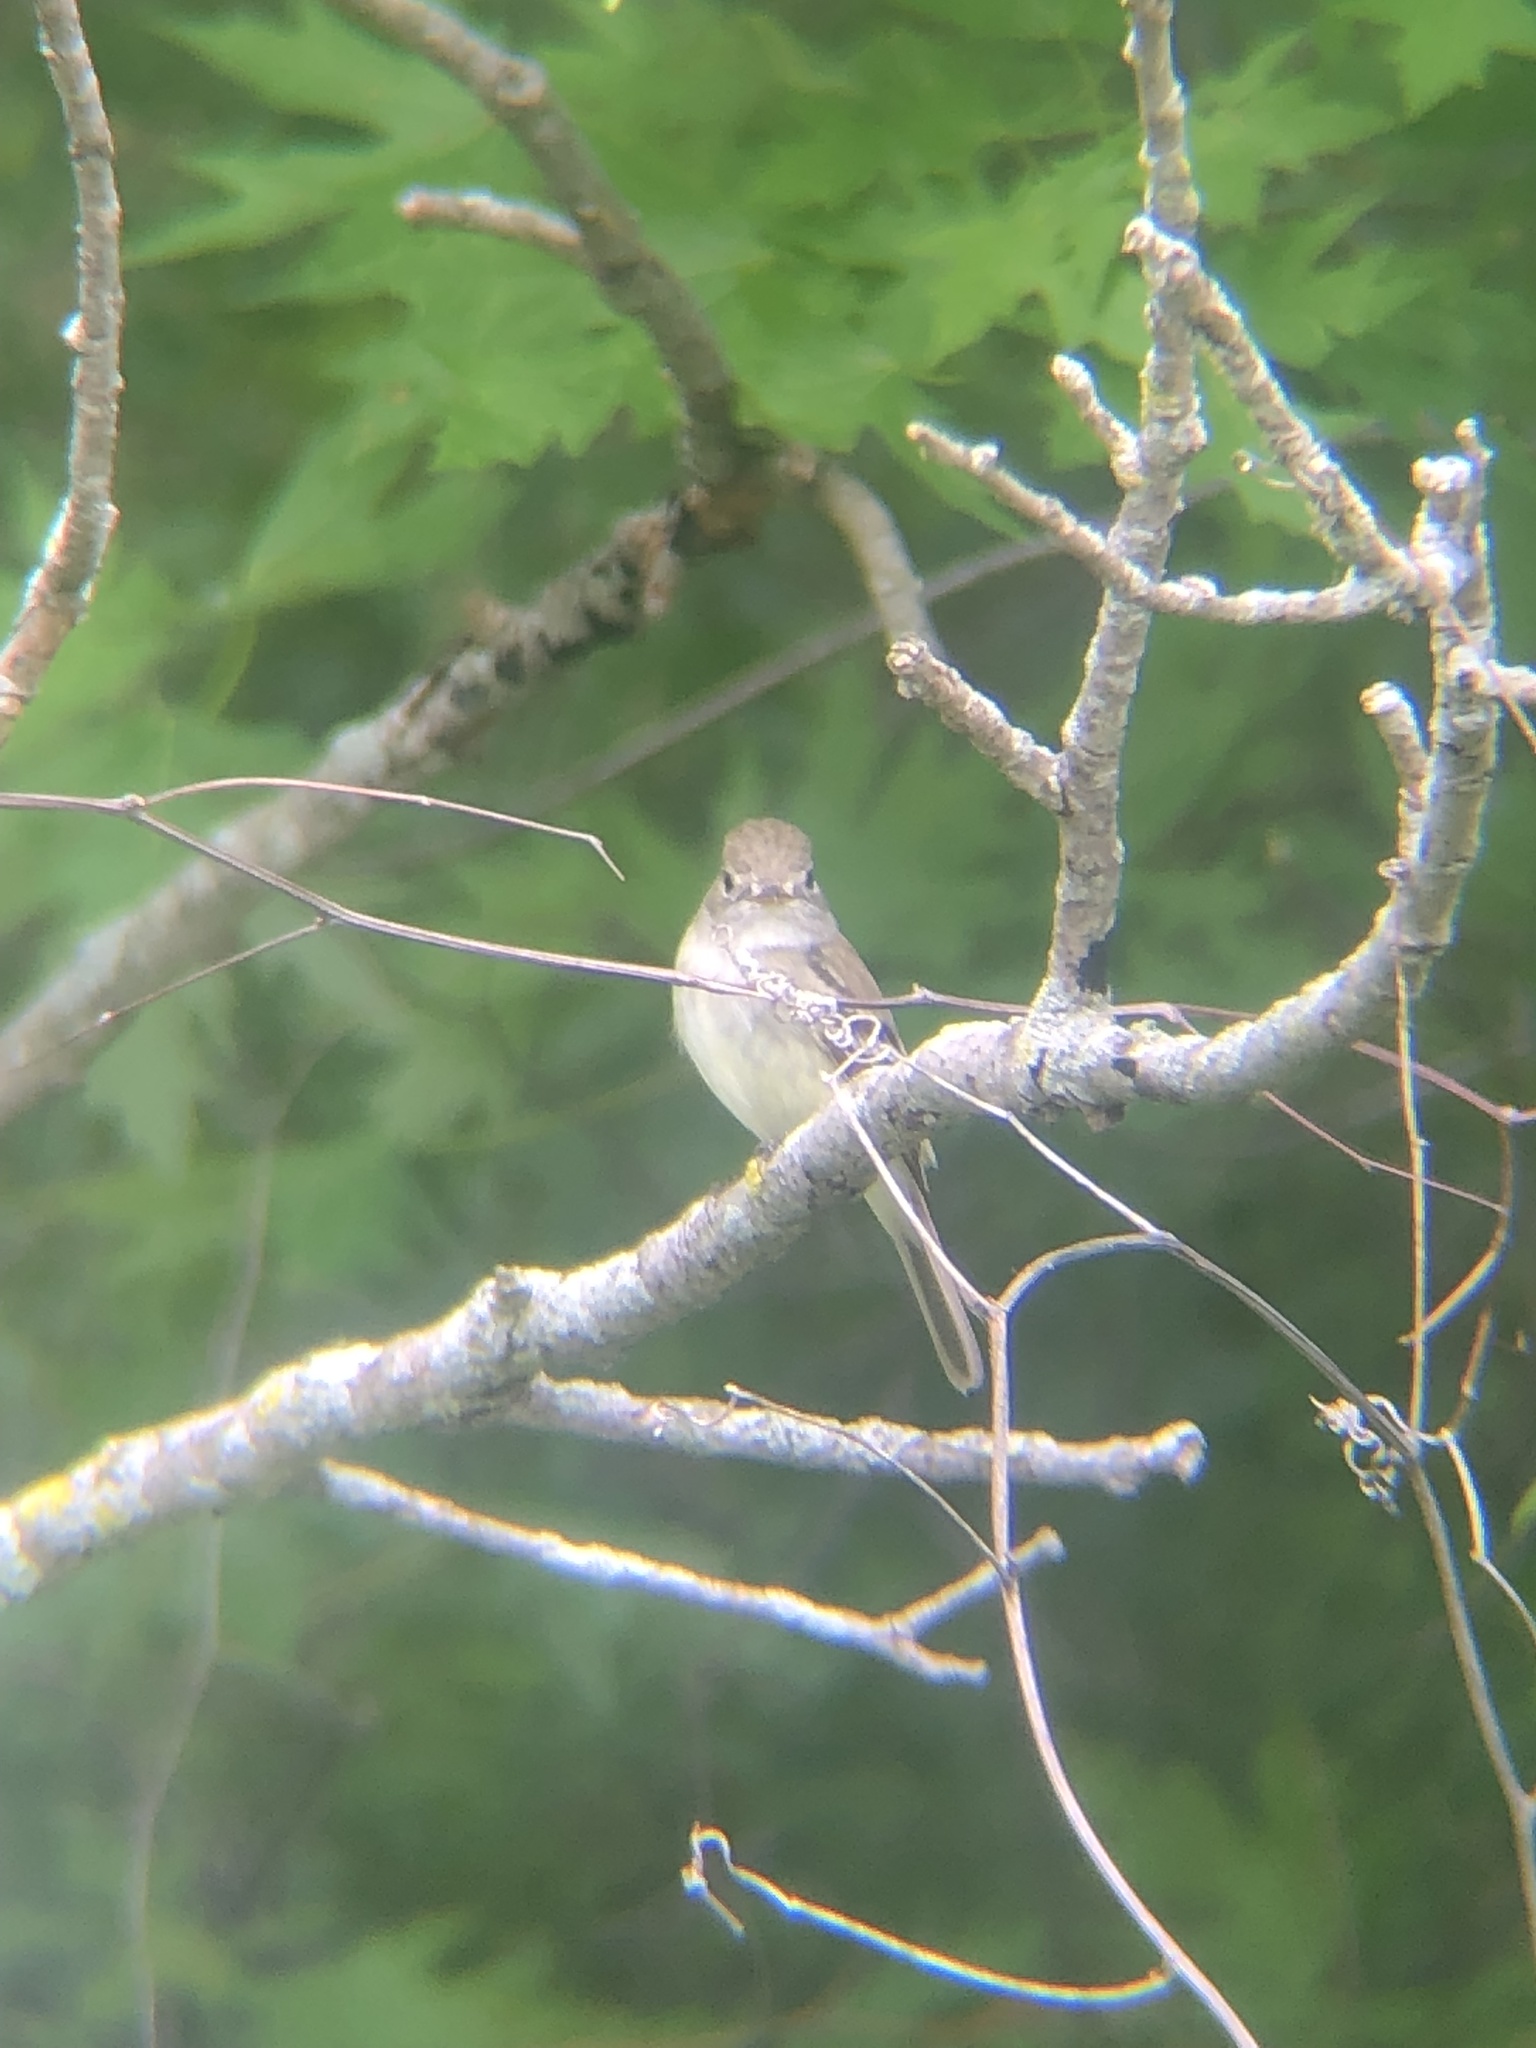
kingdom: Animalia
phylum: Chordata
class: Aves
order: Passeriformes
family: Tyrannidae
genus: Empidonax
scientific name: Empidonax minimus
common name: Least flycatcher
